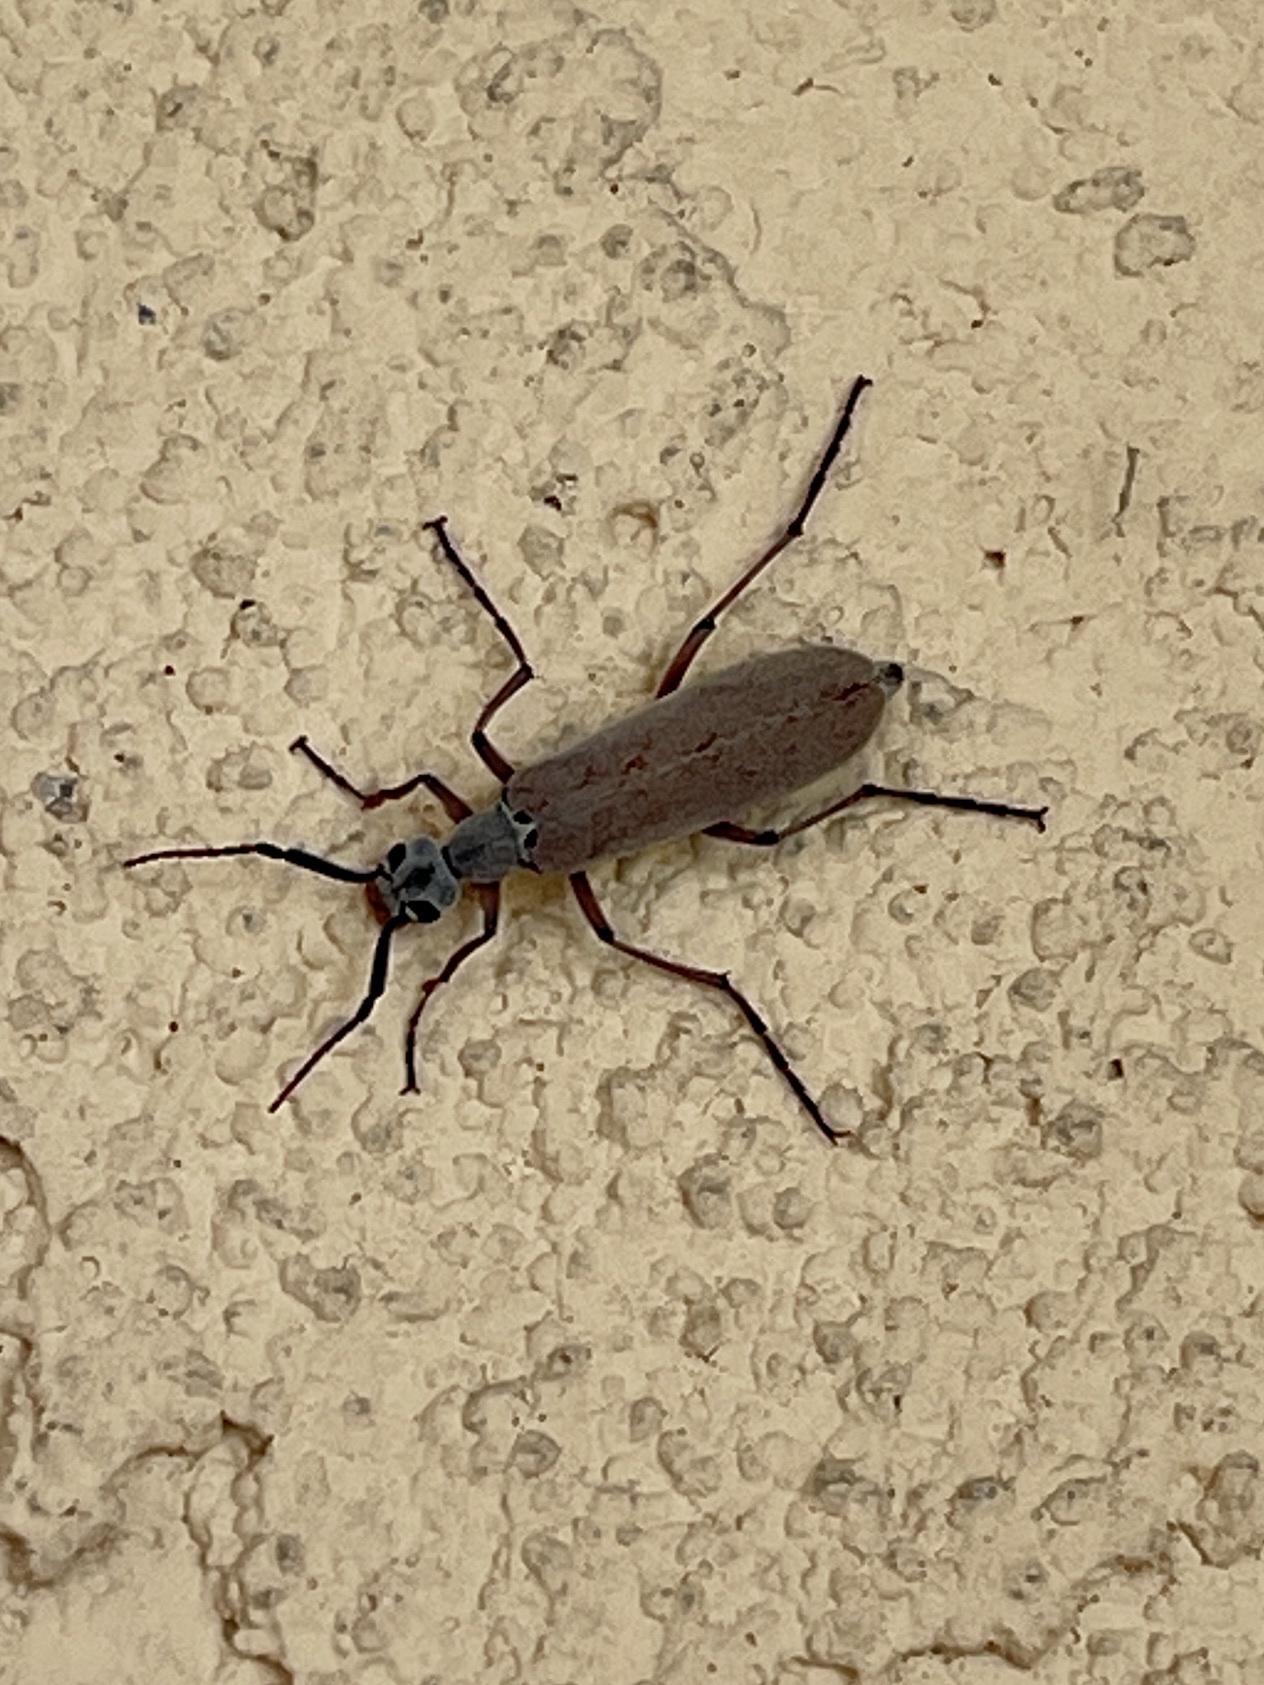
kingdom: Animalia
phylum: Arthropoda
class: Insecta
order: Coleoptera
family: Meloidae
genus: Epicauta
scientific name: Epicauta polingi
